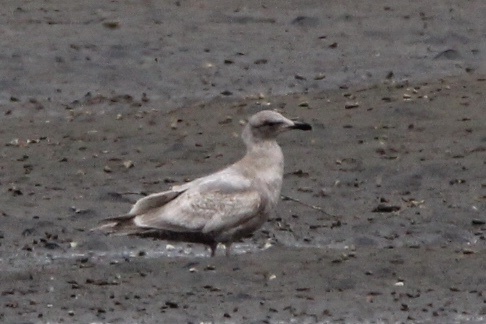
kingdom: Animalia
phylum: Chordata
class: Aves
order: Charadriiformes
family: Laridae
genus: Larus
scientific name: Larus glaucescens
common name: Glaucous-winged gull
